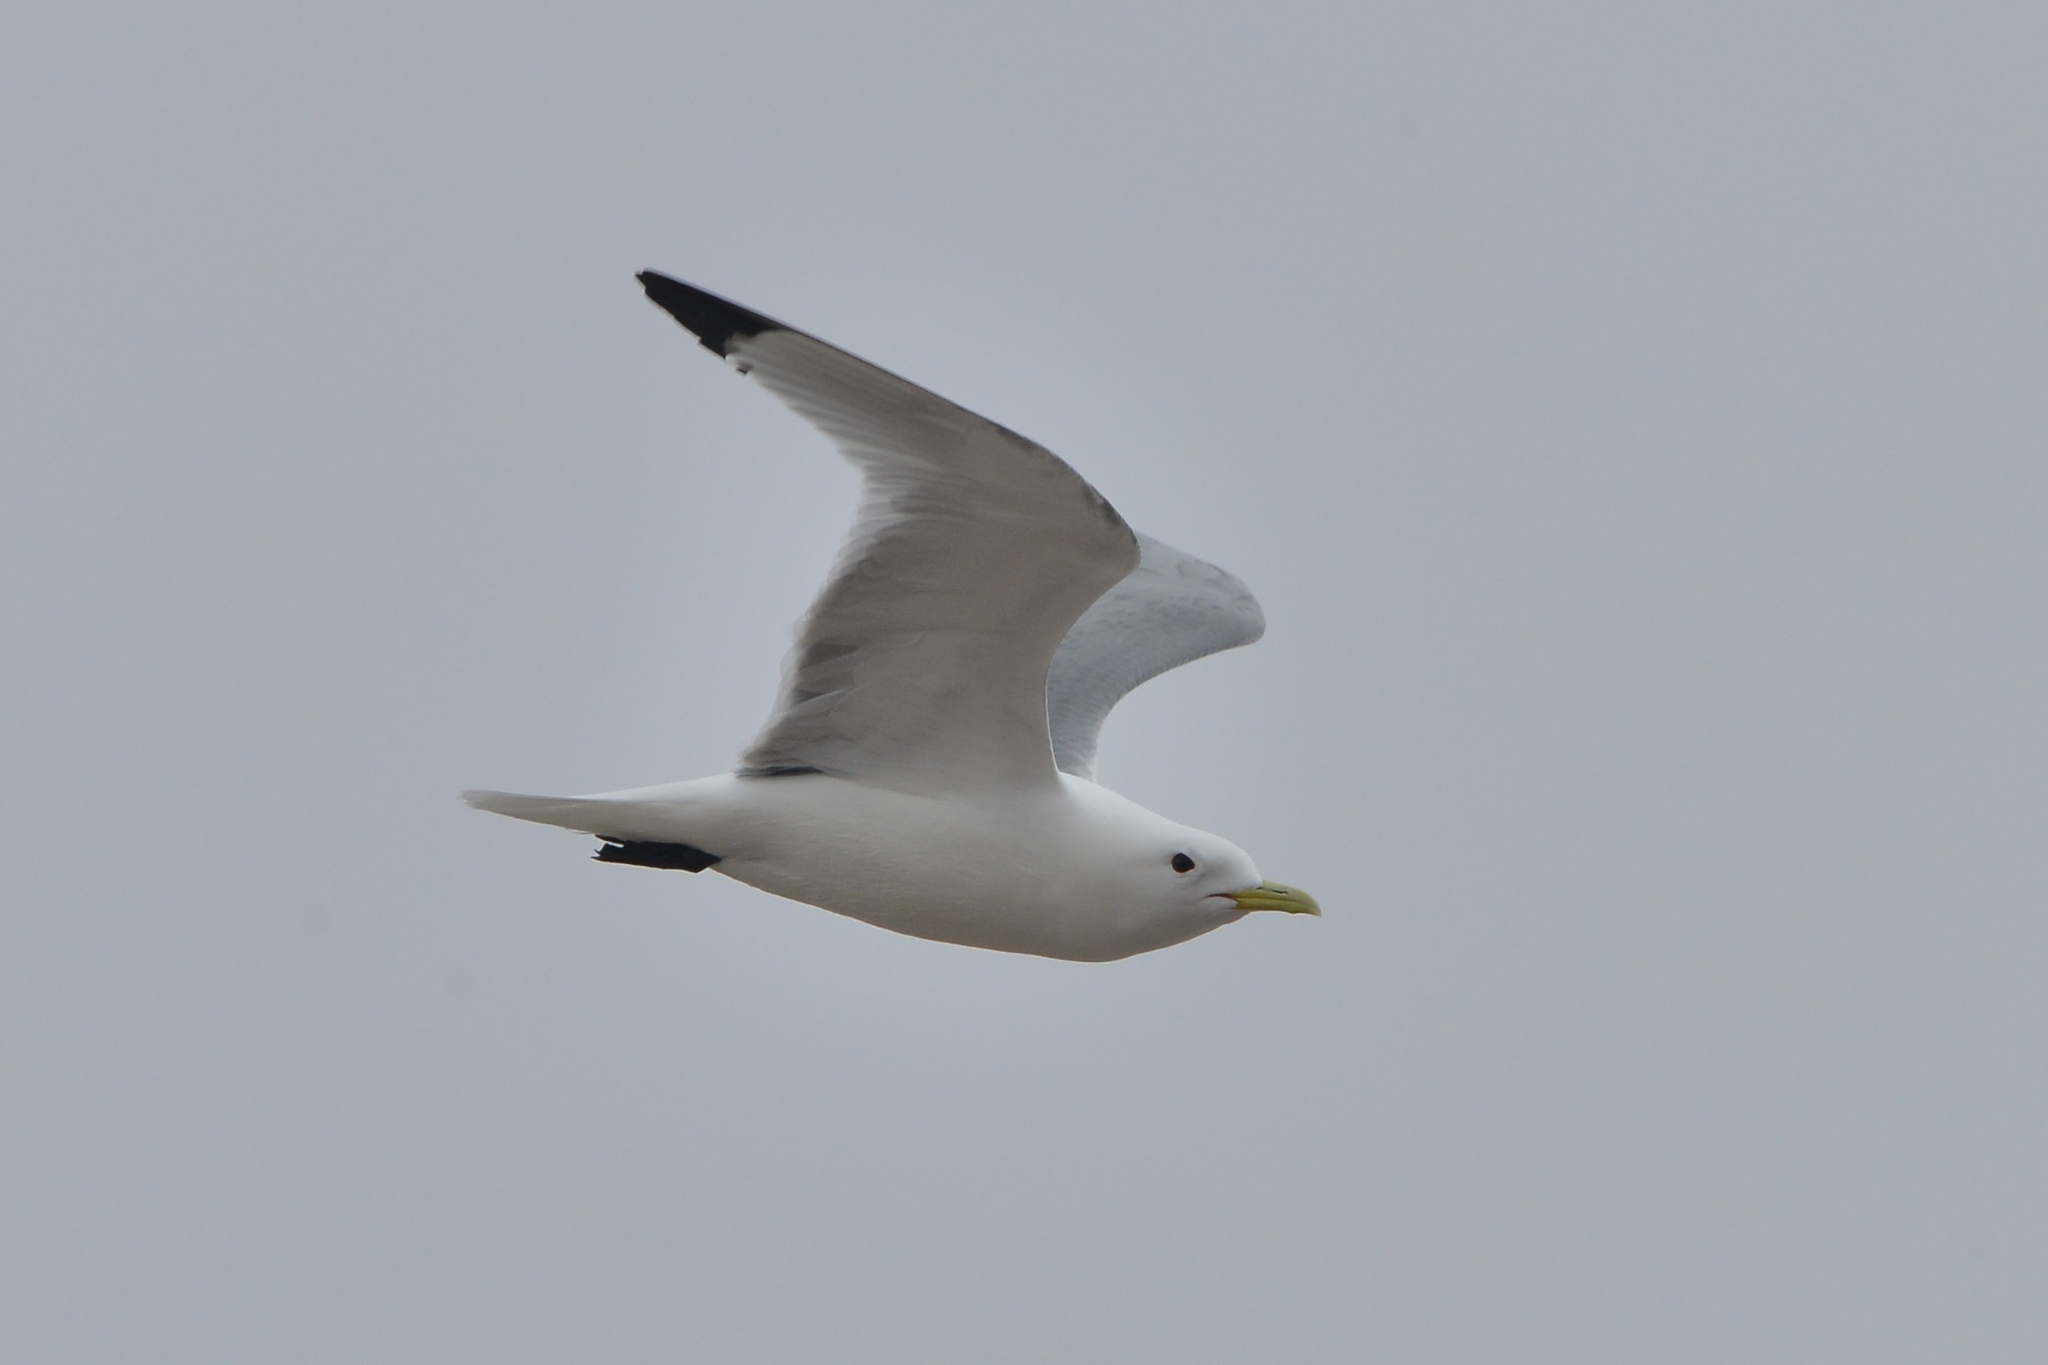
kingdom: Animalia
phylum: Chordata
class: Aves
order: Charadriiformes
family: Laridae
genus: Rissa
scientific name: Rissa tridactyla
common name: Black-legged kittiwake
